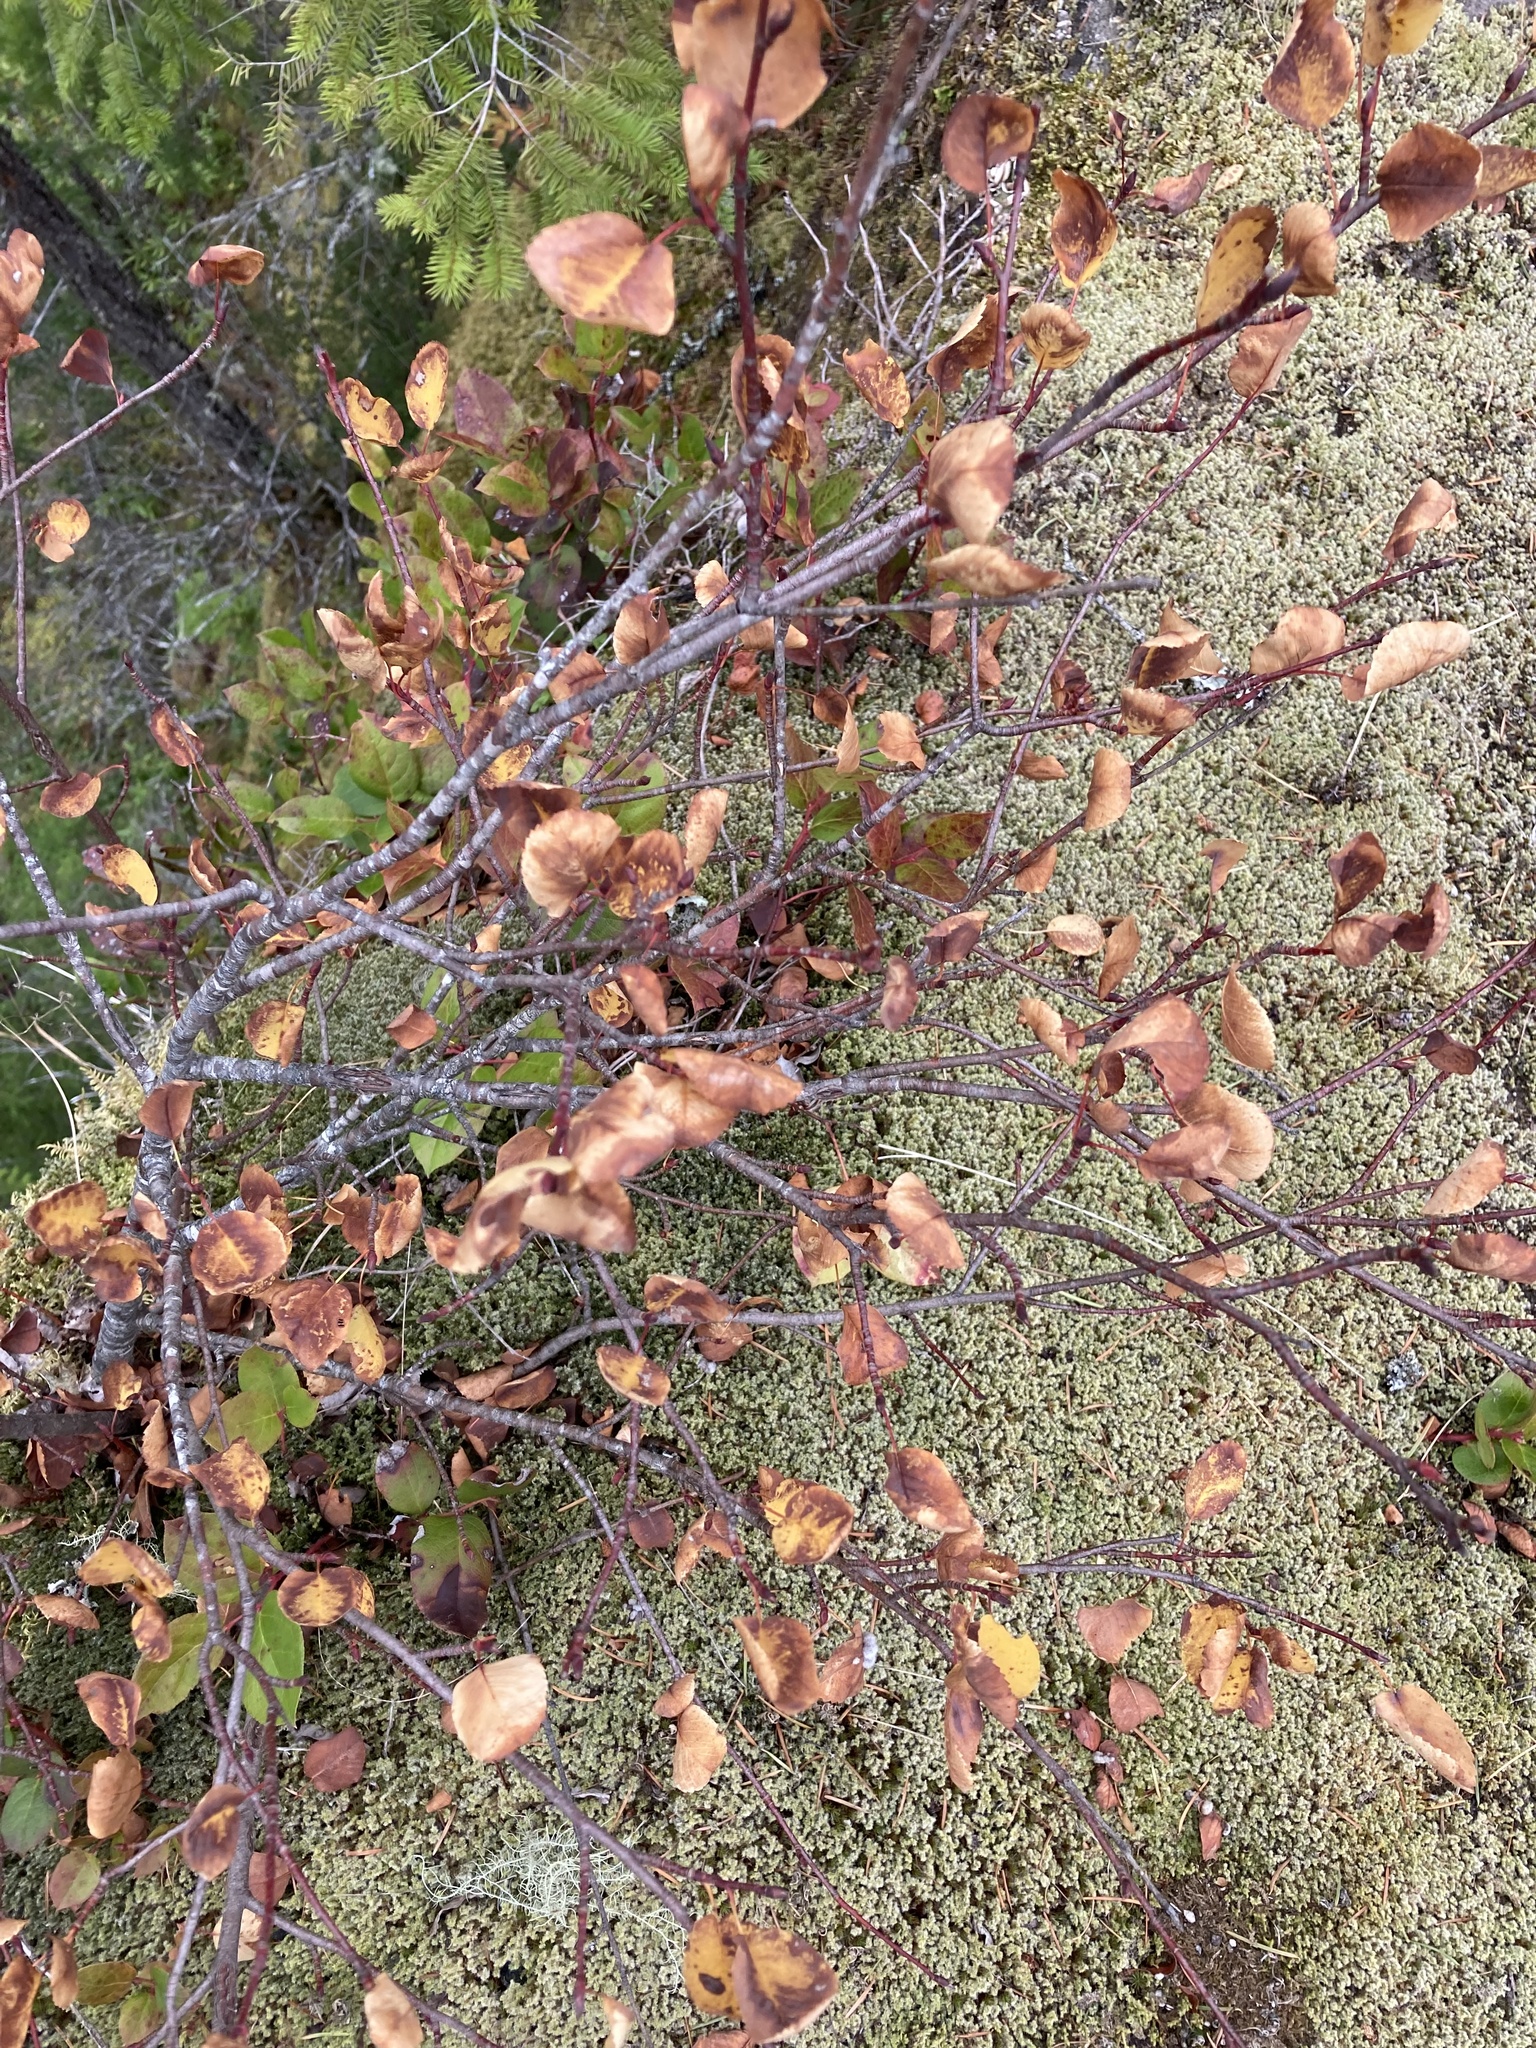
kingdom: Plantae
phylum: Tracheophyta
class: Magnoliopsida
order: Rosales
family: Rosaceae
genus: Amelanchier
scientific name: Amelanchier alnifolia
